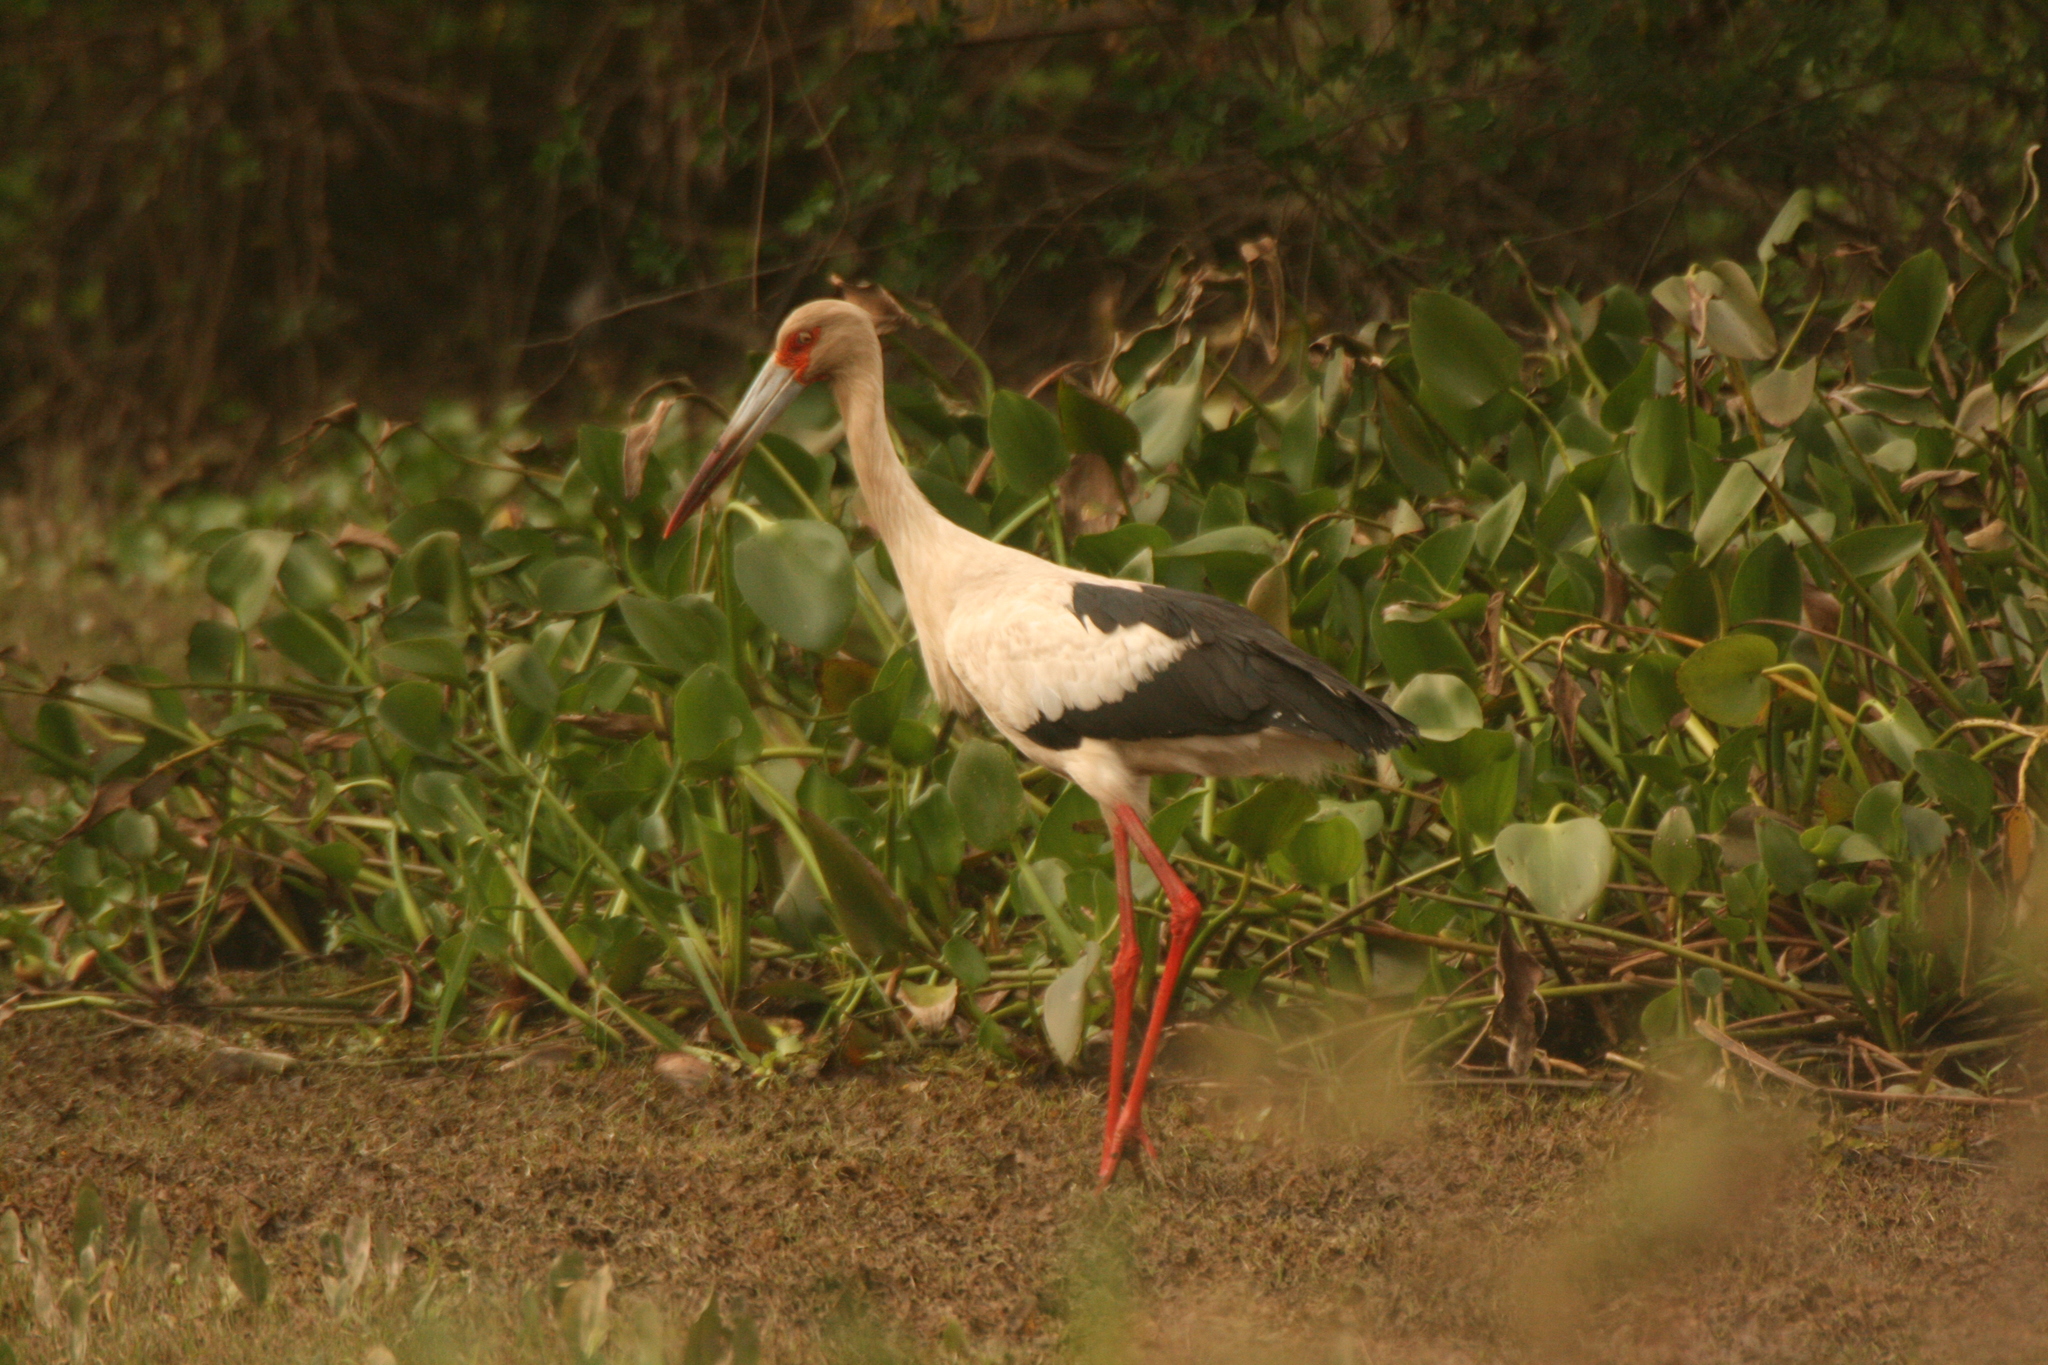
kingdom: Animalia
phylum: Chordata
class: Aves
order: Ciconiiformes
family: Ciconiidae
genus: Ciconia
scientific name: Ciconia maguari
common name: Maguari stork
